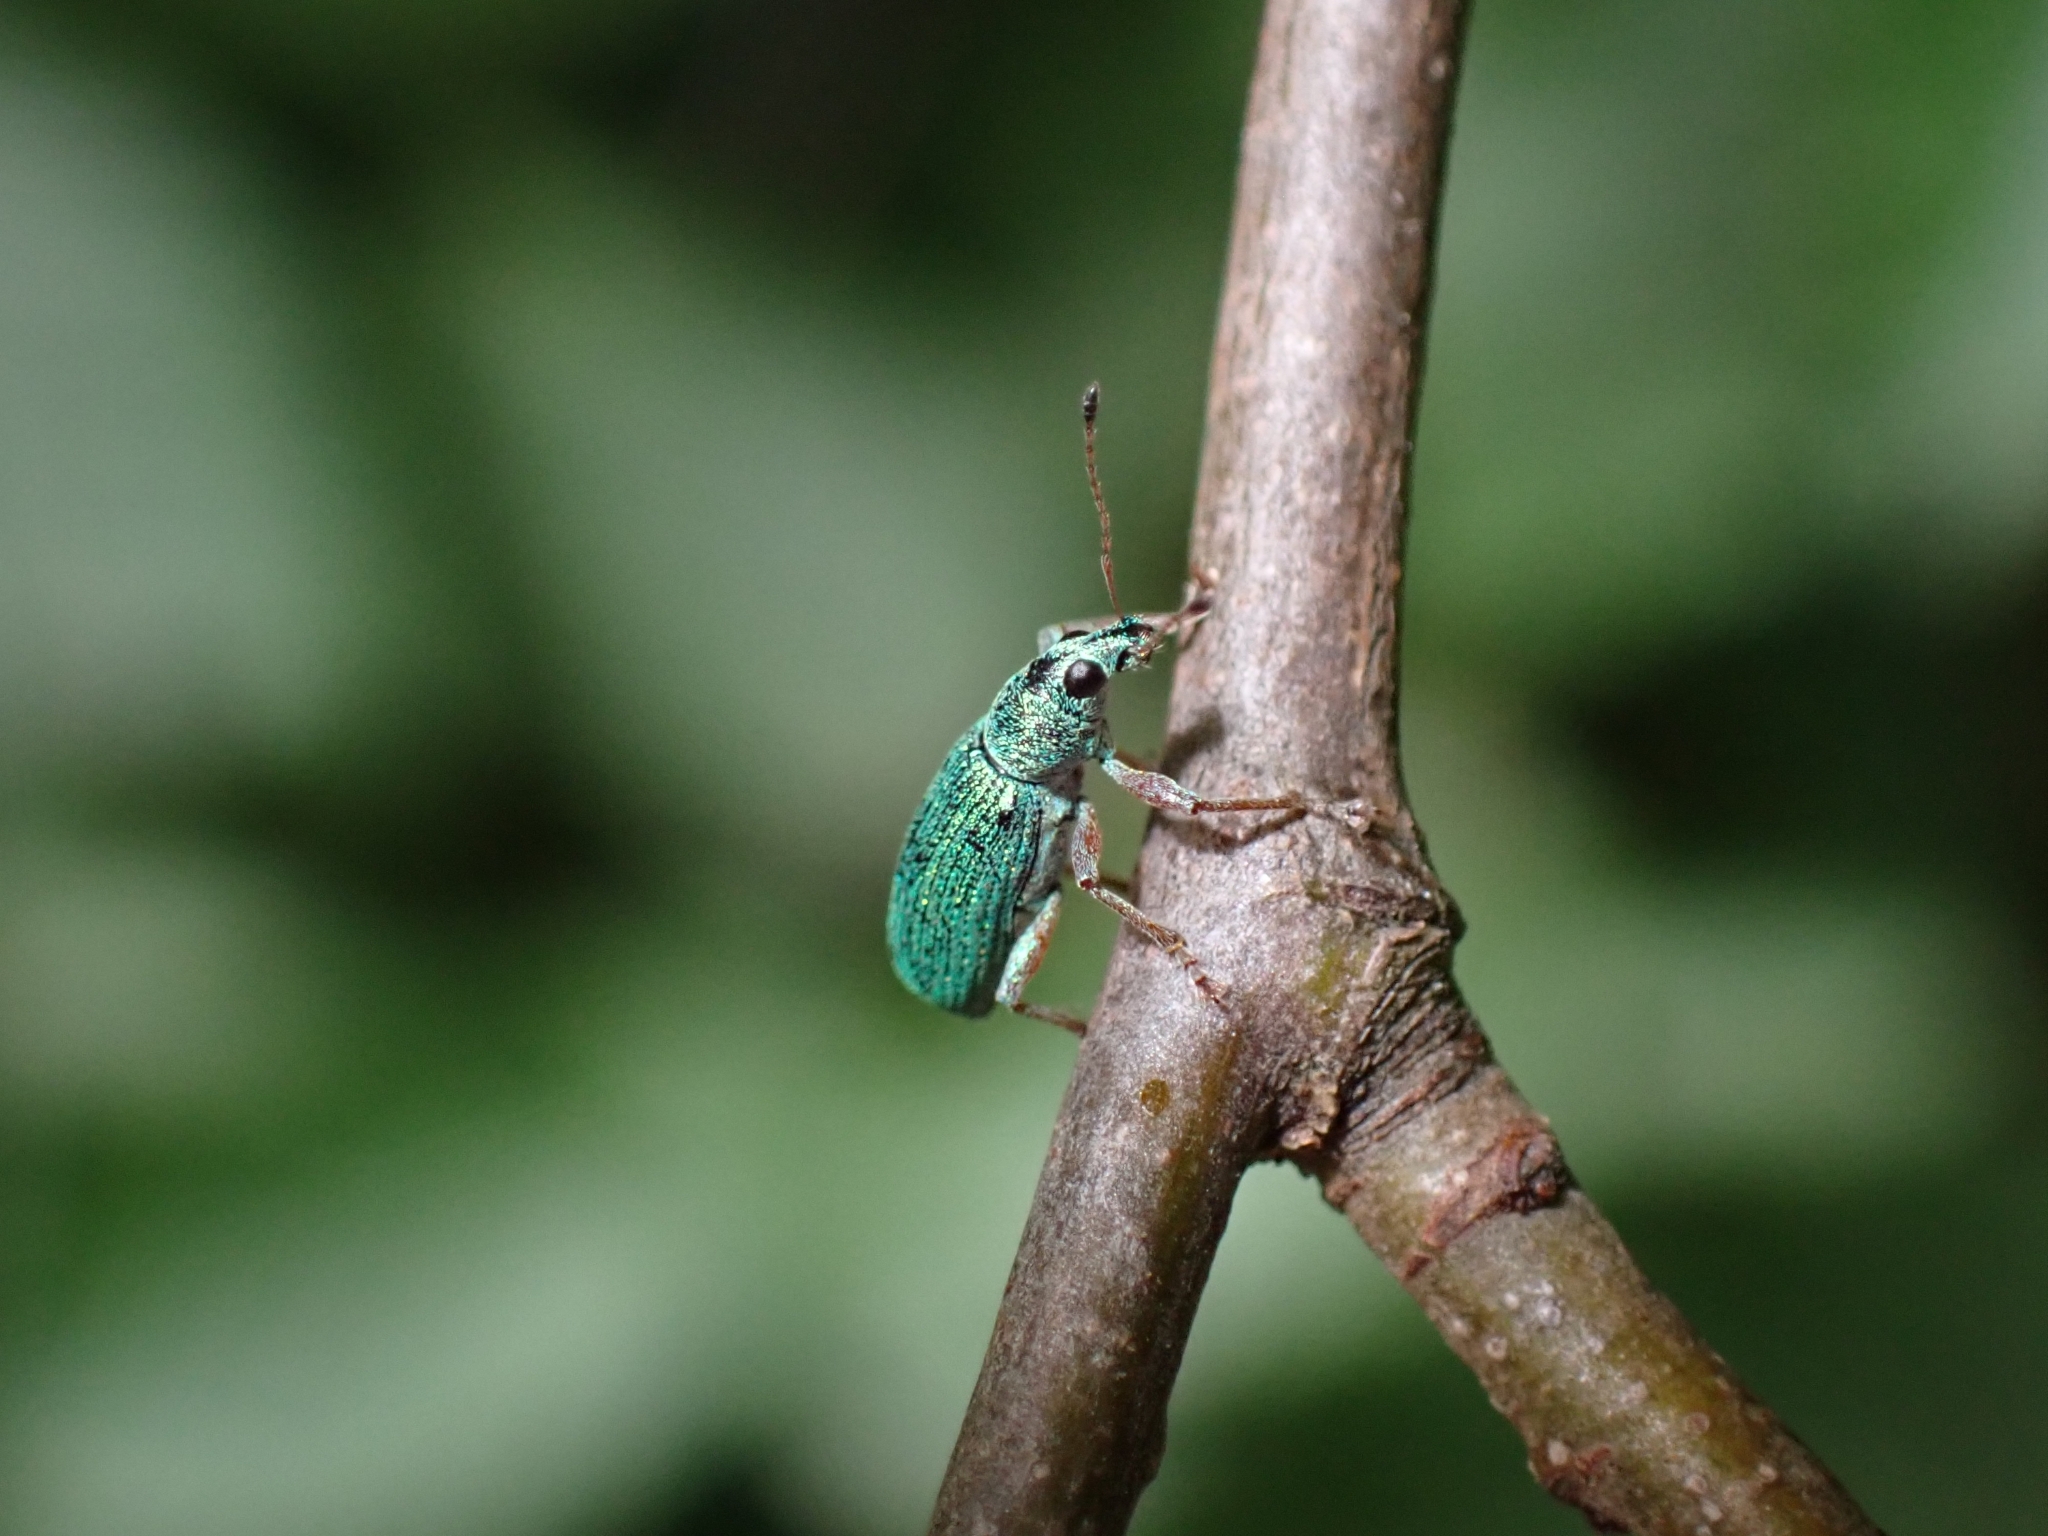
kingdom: Animalia
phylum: Arthropoda
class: Insecta
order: Coleoptera
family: Curculionidae
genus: Polydrusus
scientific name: Polydrusus formosus
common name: Weevil
